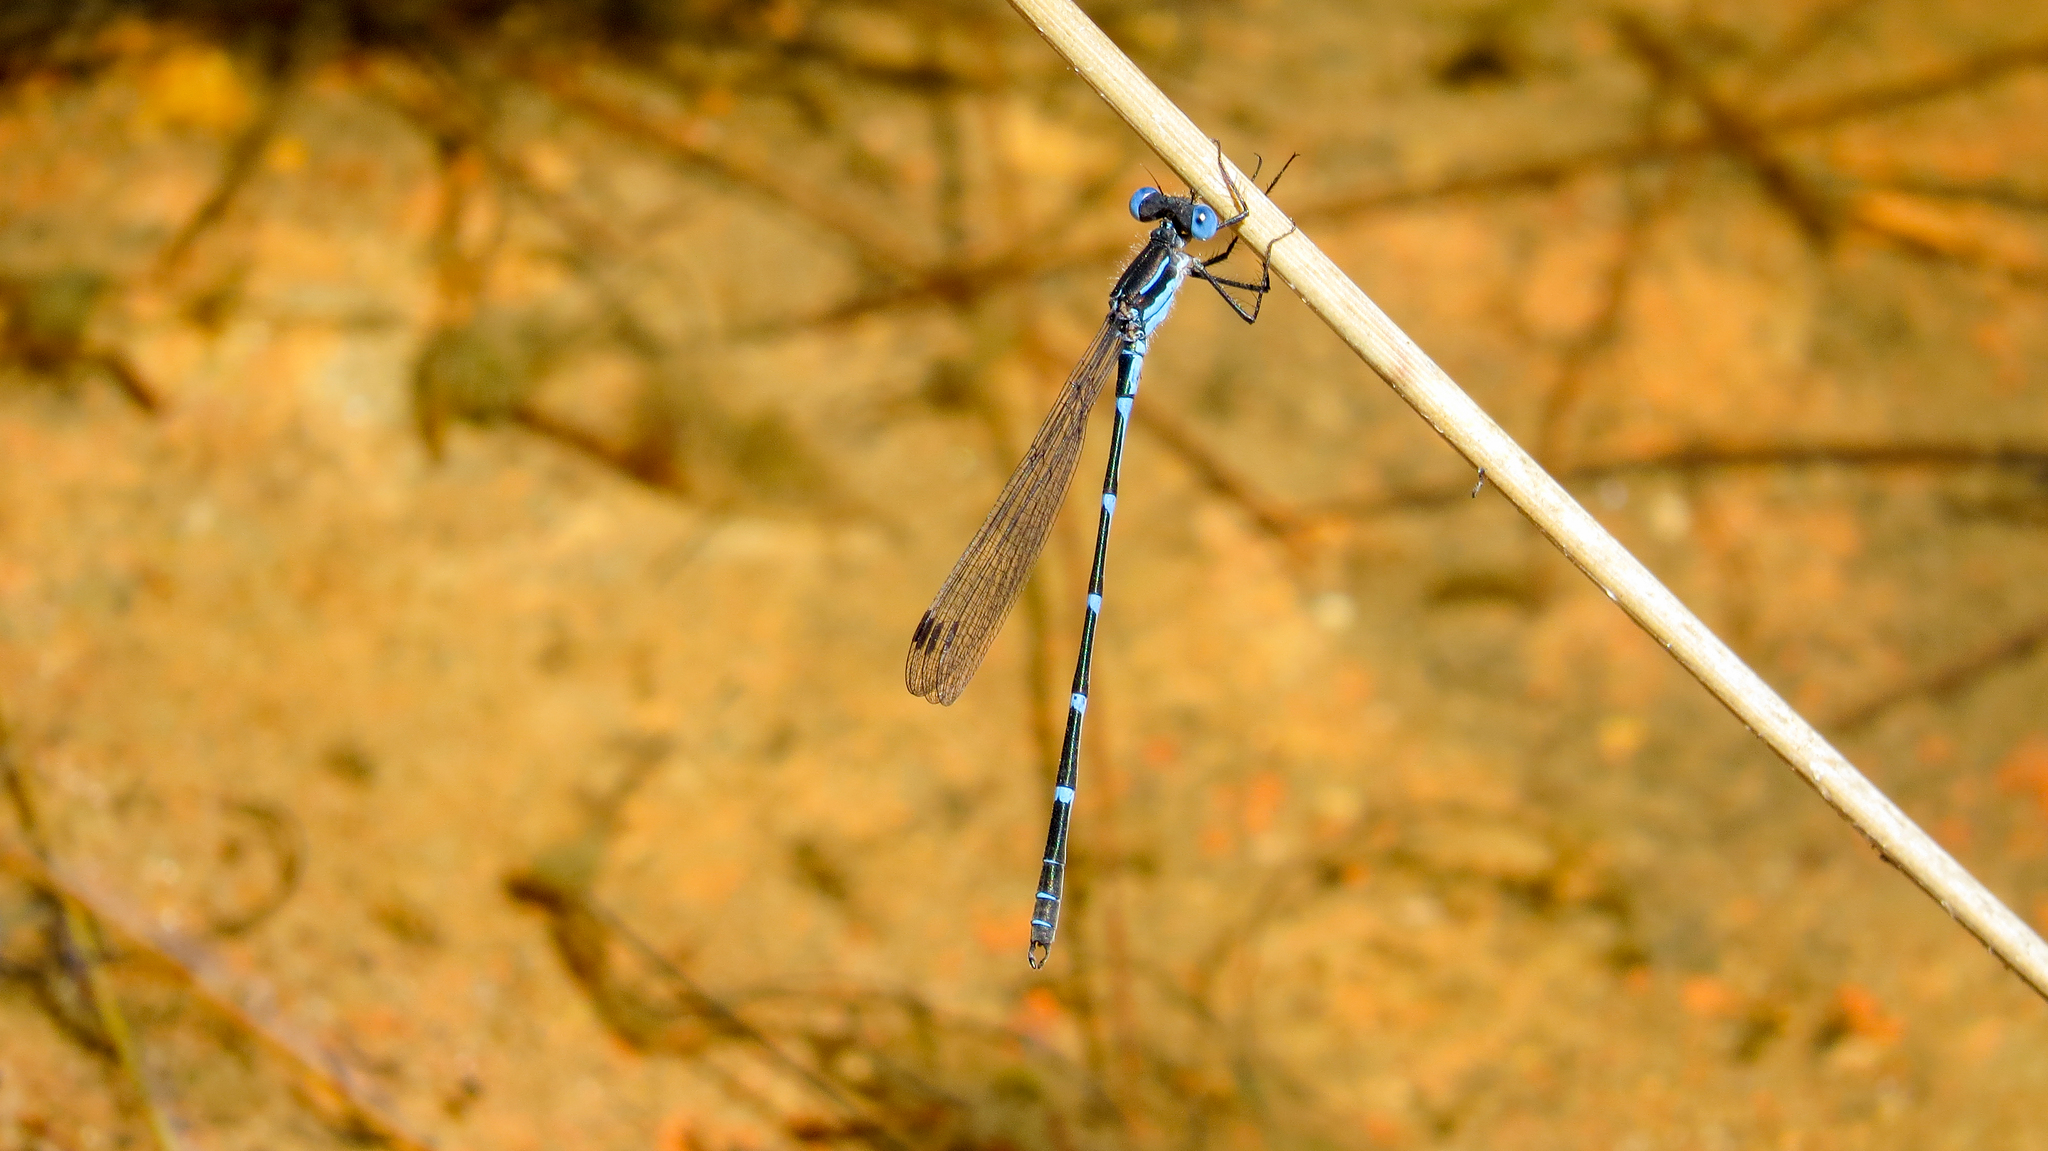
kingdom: Animalia
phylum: Arthropoda
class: Insecta
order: Odonata
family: Lestidae
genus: Austrolestes
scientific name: Austrolestes minjerriba
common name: Dune ringtail
